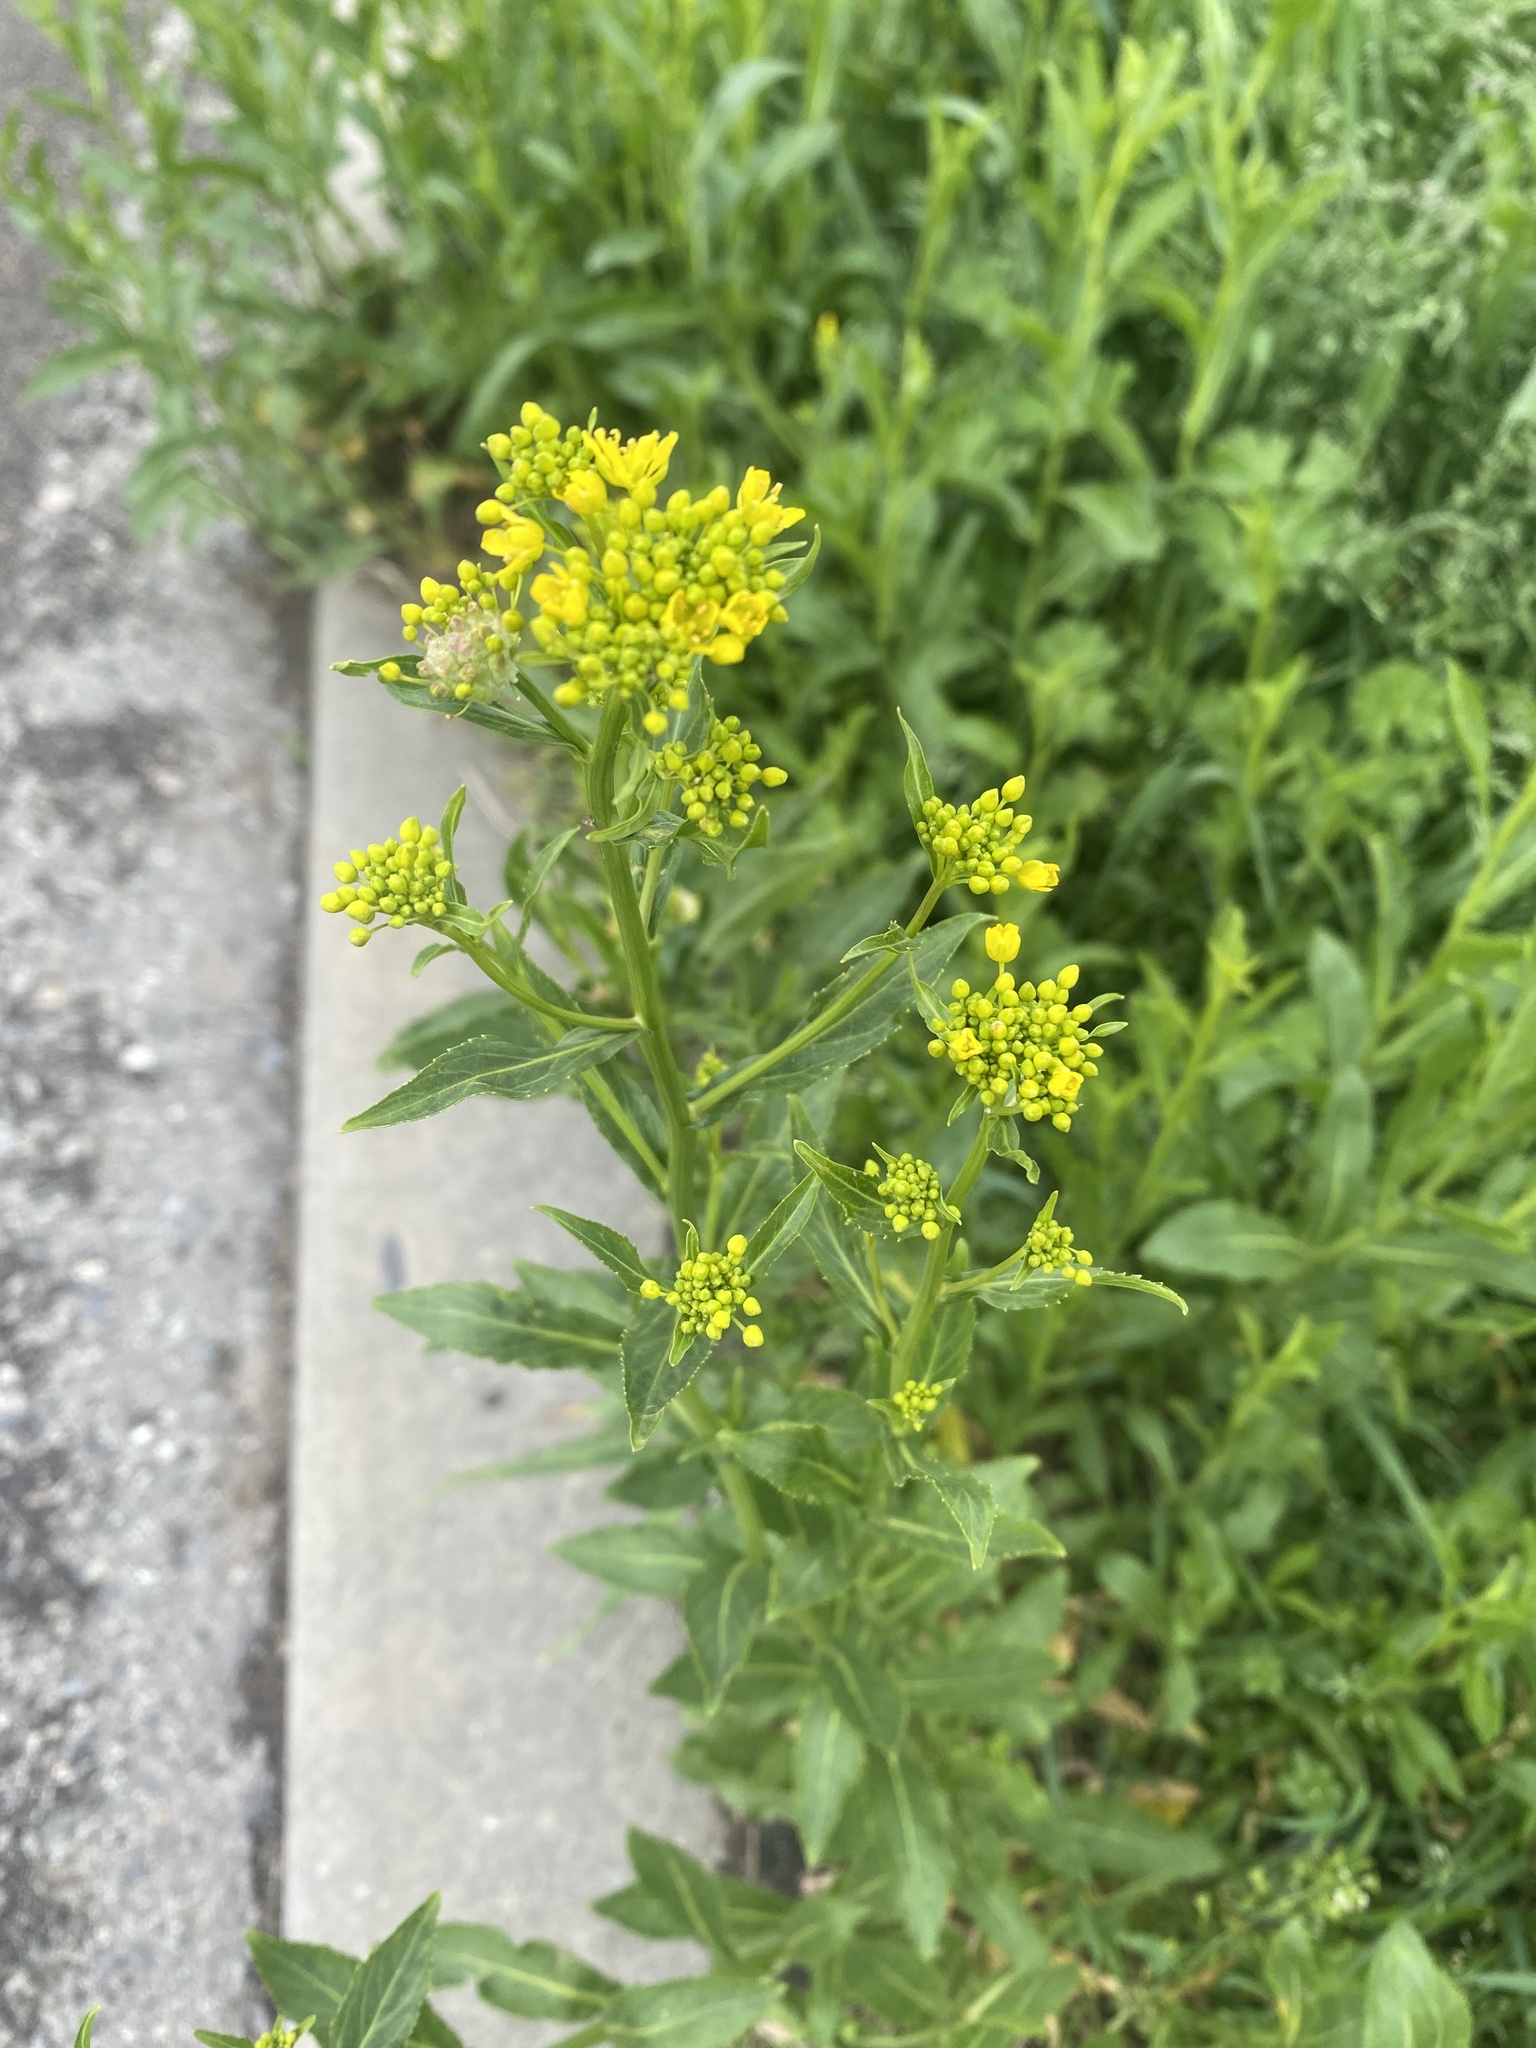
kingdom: Plantae
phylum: Tracheophyta
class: Magnoliopsida
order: Brassicales
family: Brassicaceae
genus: Rorippa
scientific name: Rorippa austriaca
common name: Austrian yellow-cress
